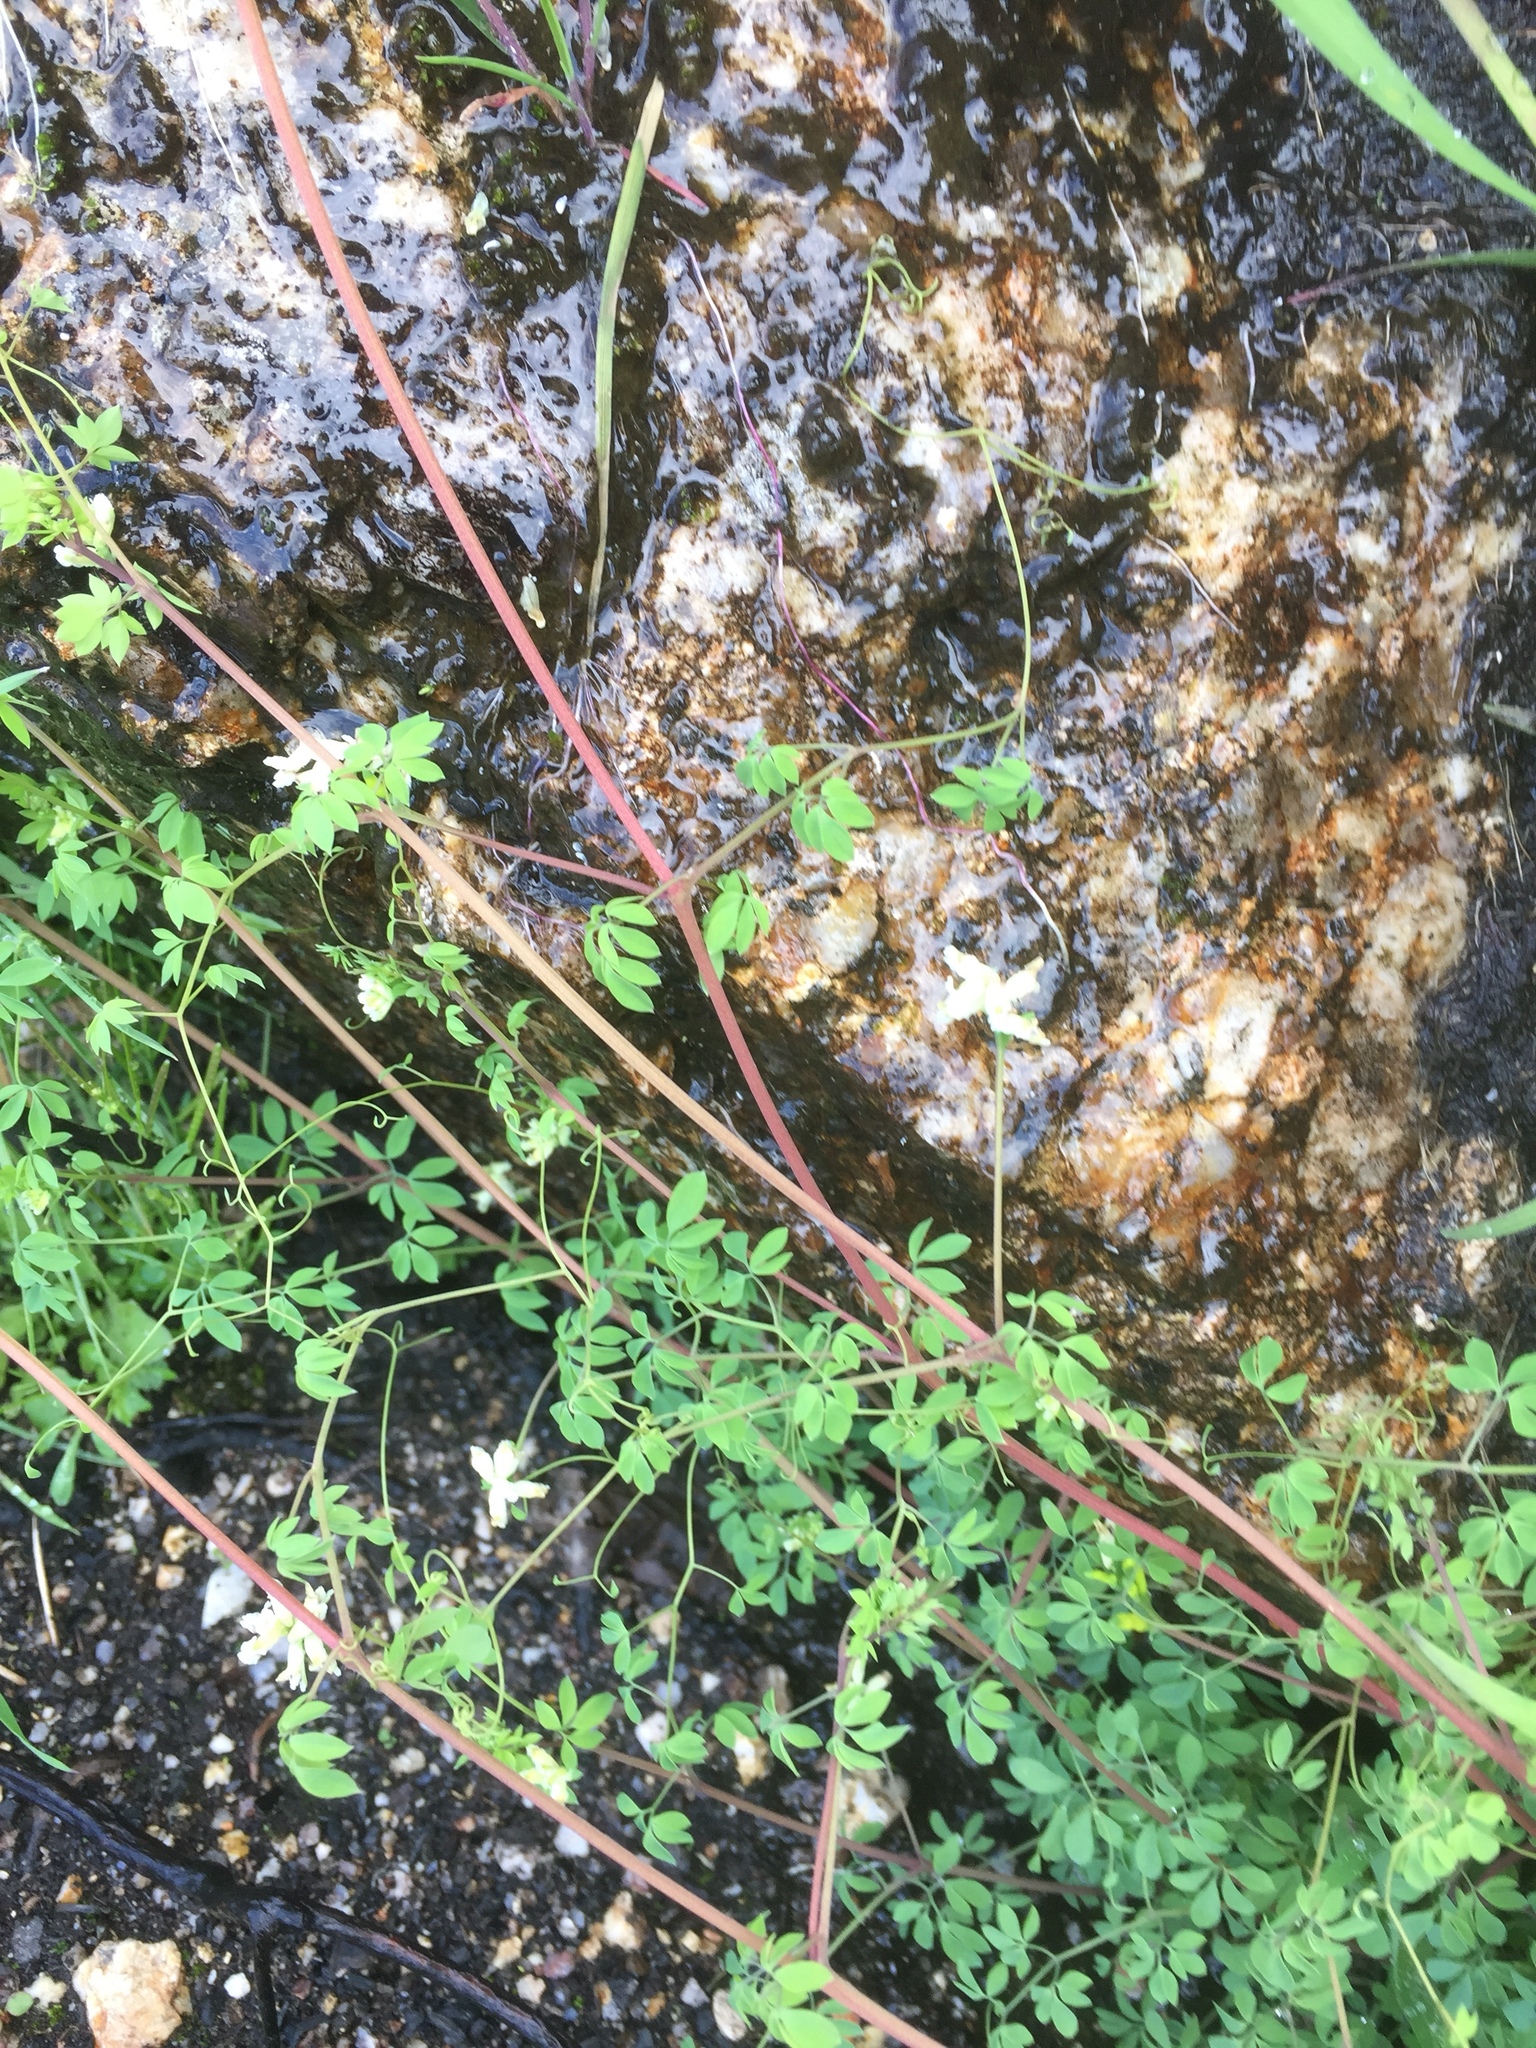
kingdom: Plantae
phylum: Tracheophyta
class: Magnoliopsida
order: Ranunculales
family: Papaveraceae
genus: Ceratocapnos
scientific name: Ceratocapnos claviculata
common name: Climbing corydalis
